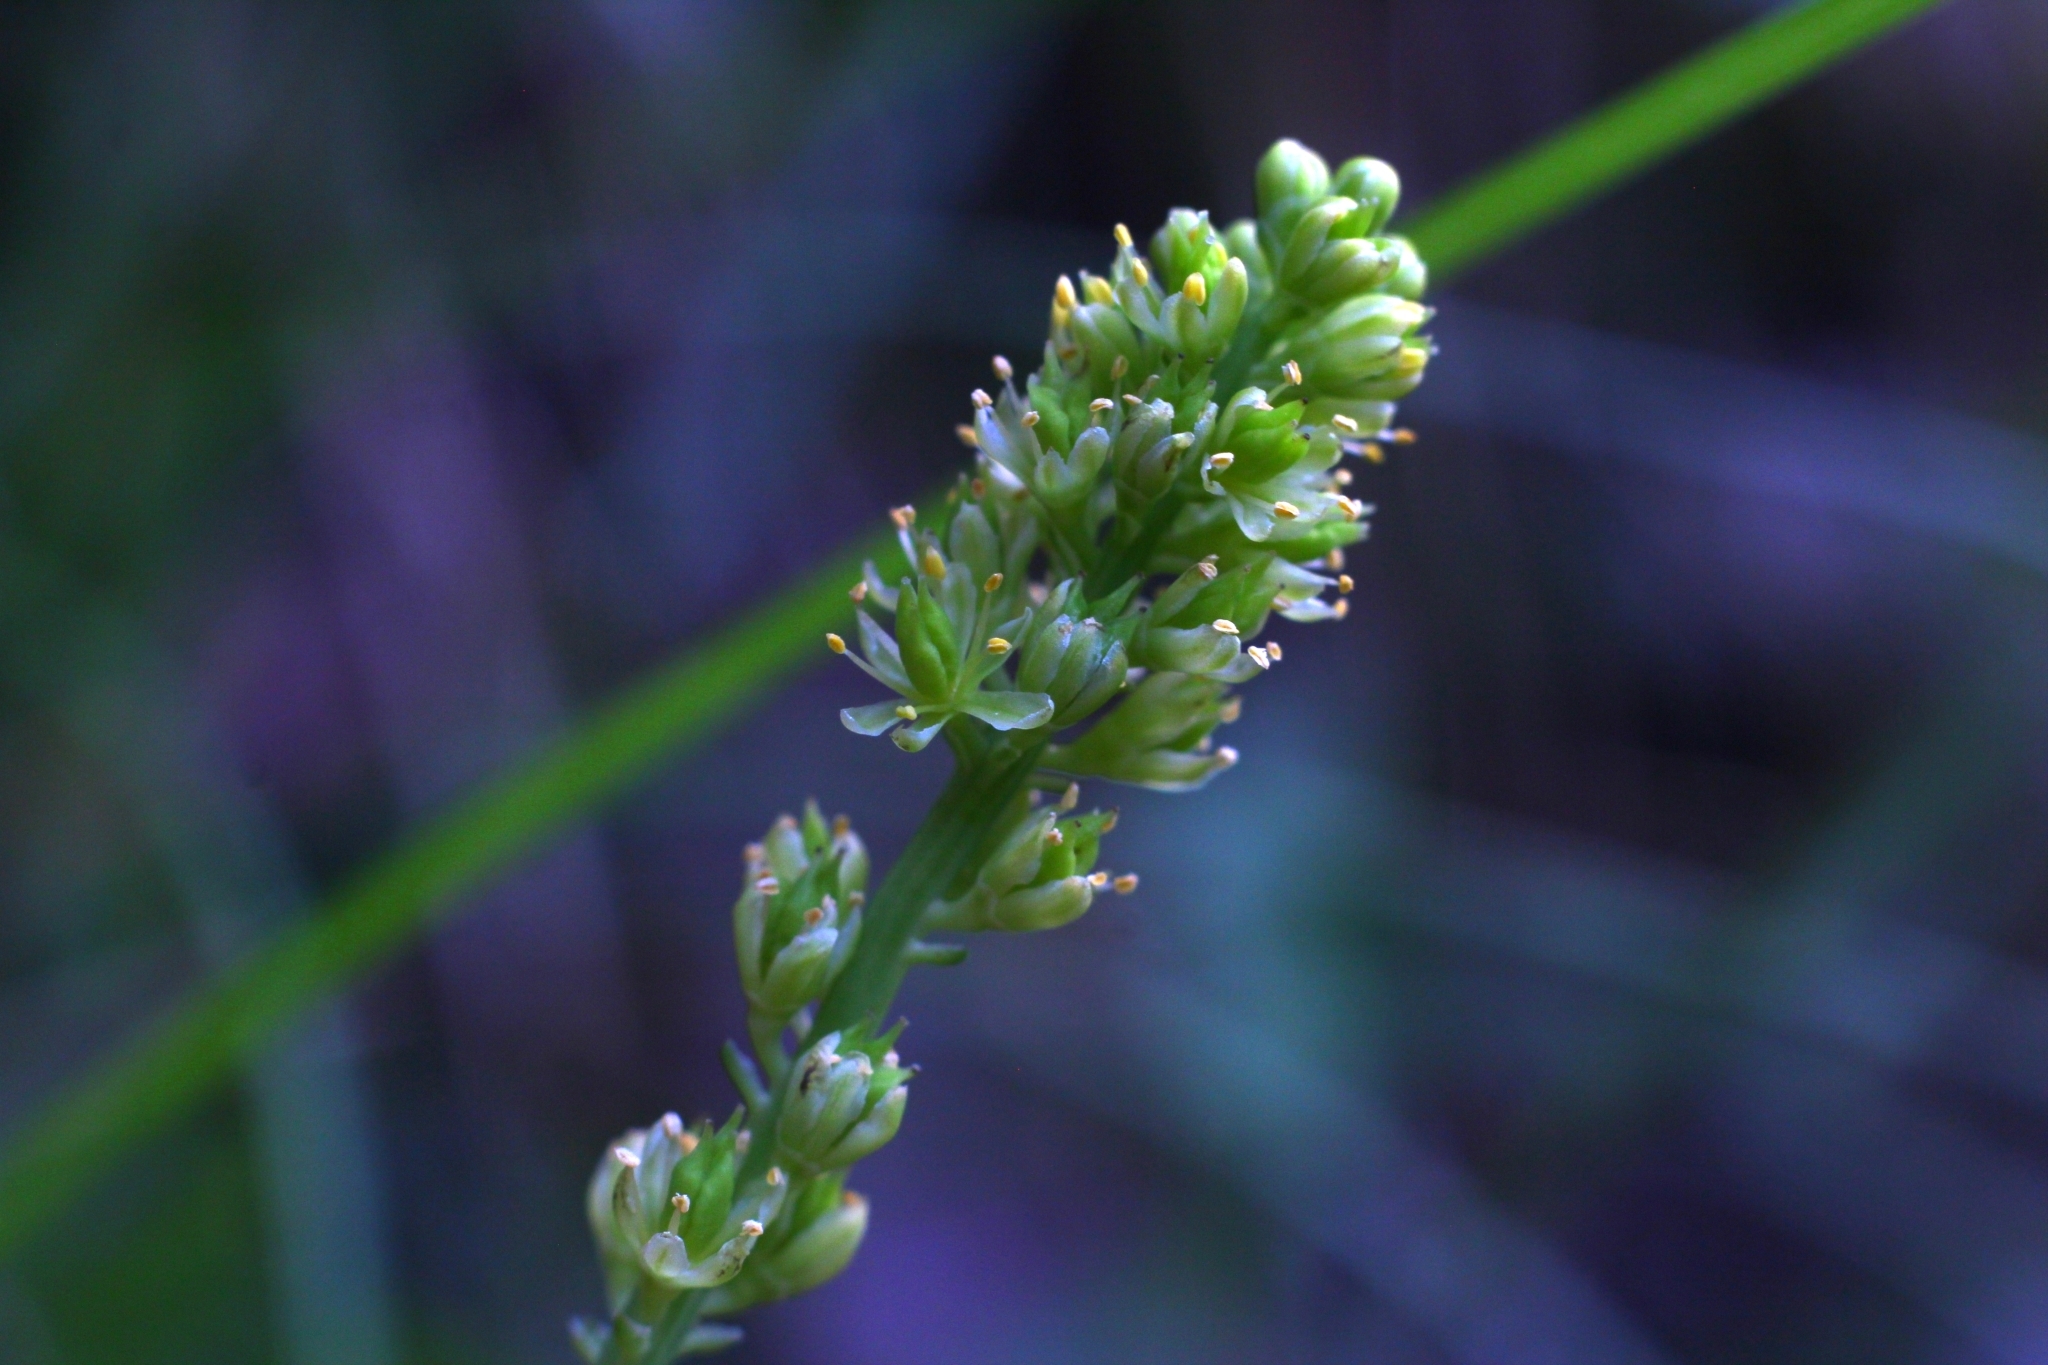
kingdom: Plantae
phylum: Tracheophyta
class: Liliopsida
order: Alismatales
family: Tofieldiaceae
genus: Tofieldia
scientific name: Tofieldia calyculata
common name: German-asphodel
